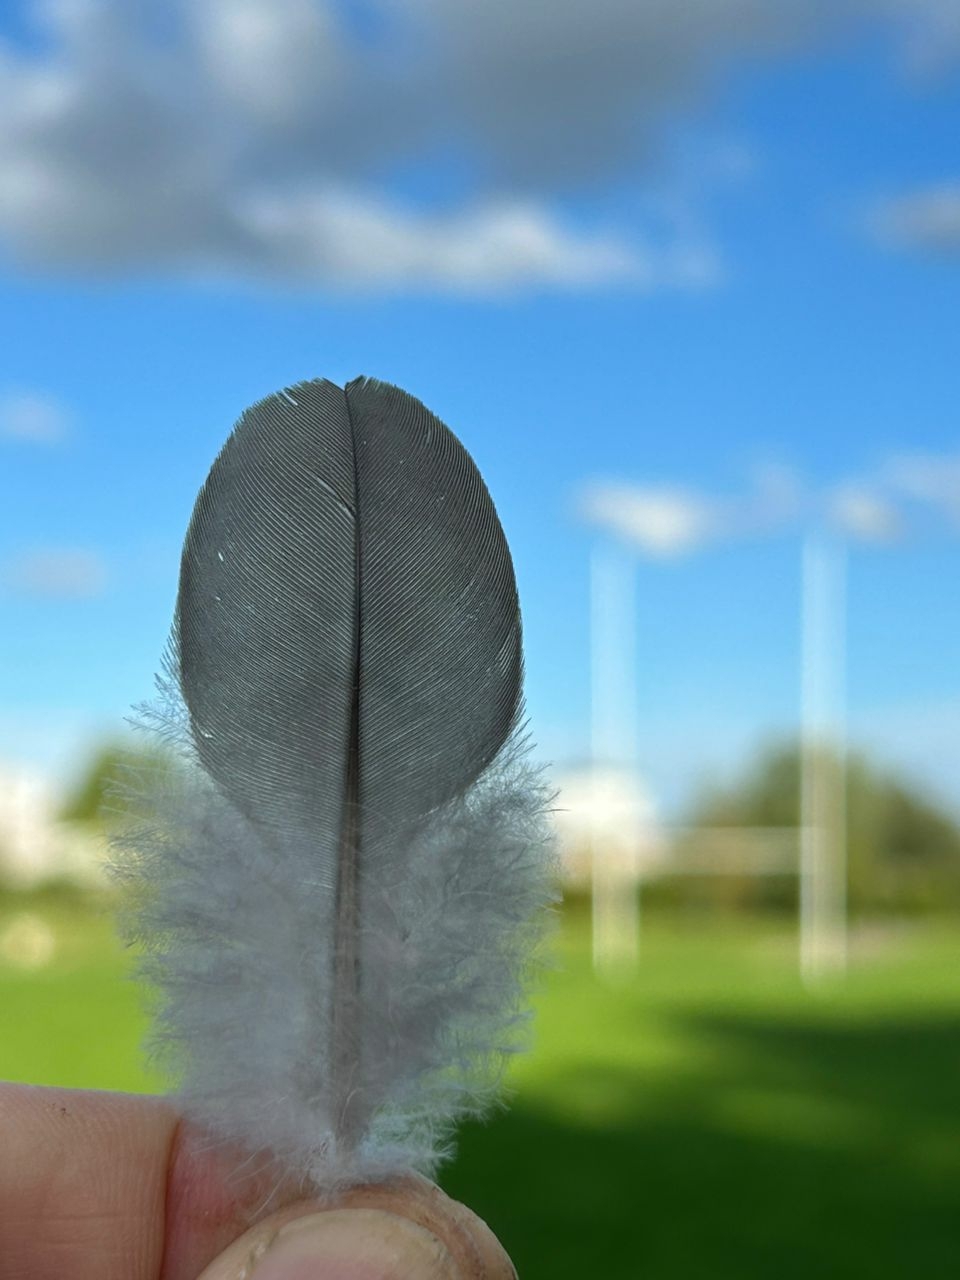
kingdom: Animalia
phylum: Chordata
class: Aves
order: Columbiformes
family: Columbidae
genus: Columba
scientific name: Columba palumbus
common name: Common wood pigeon
